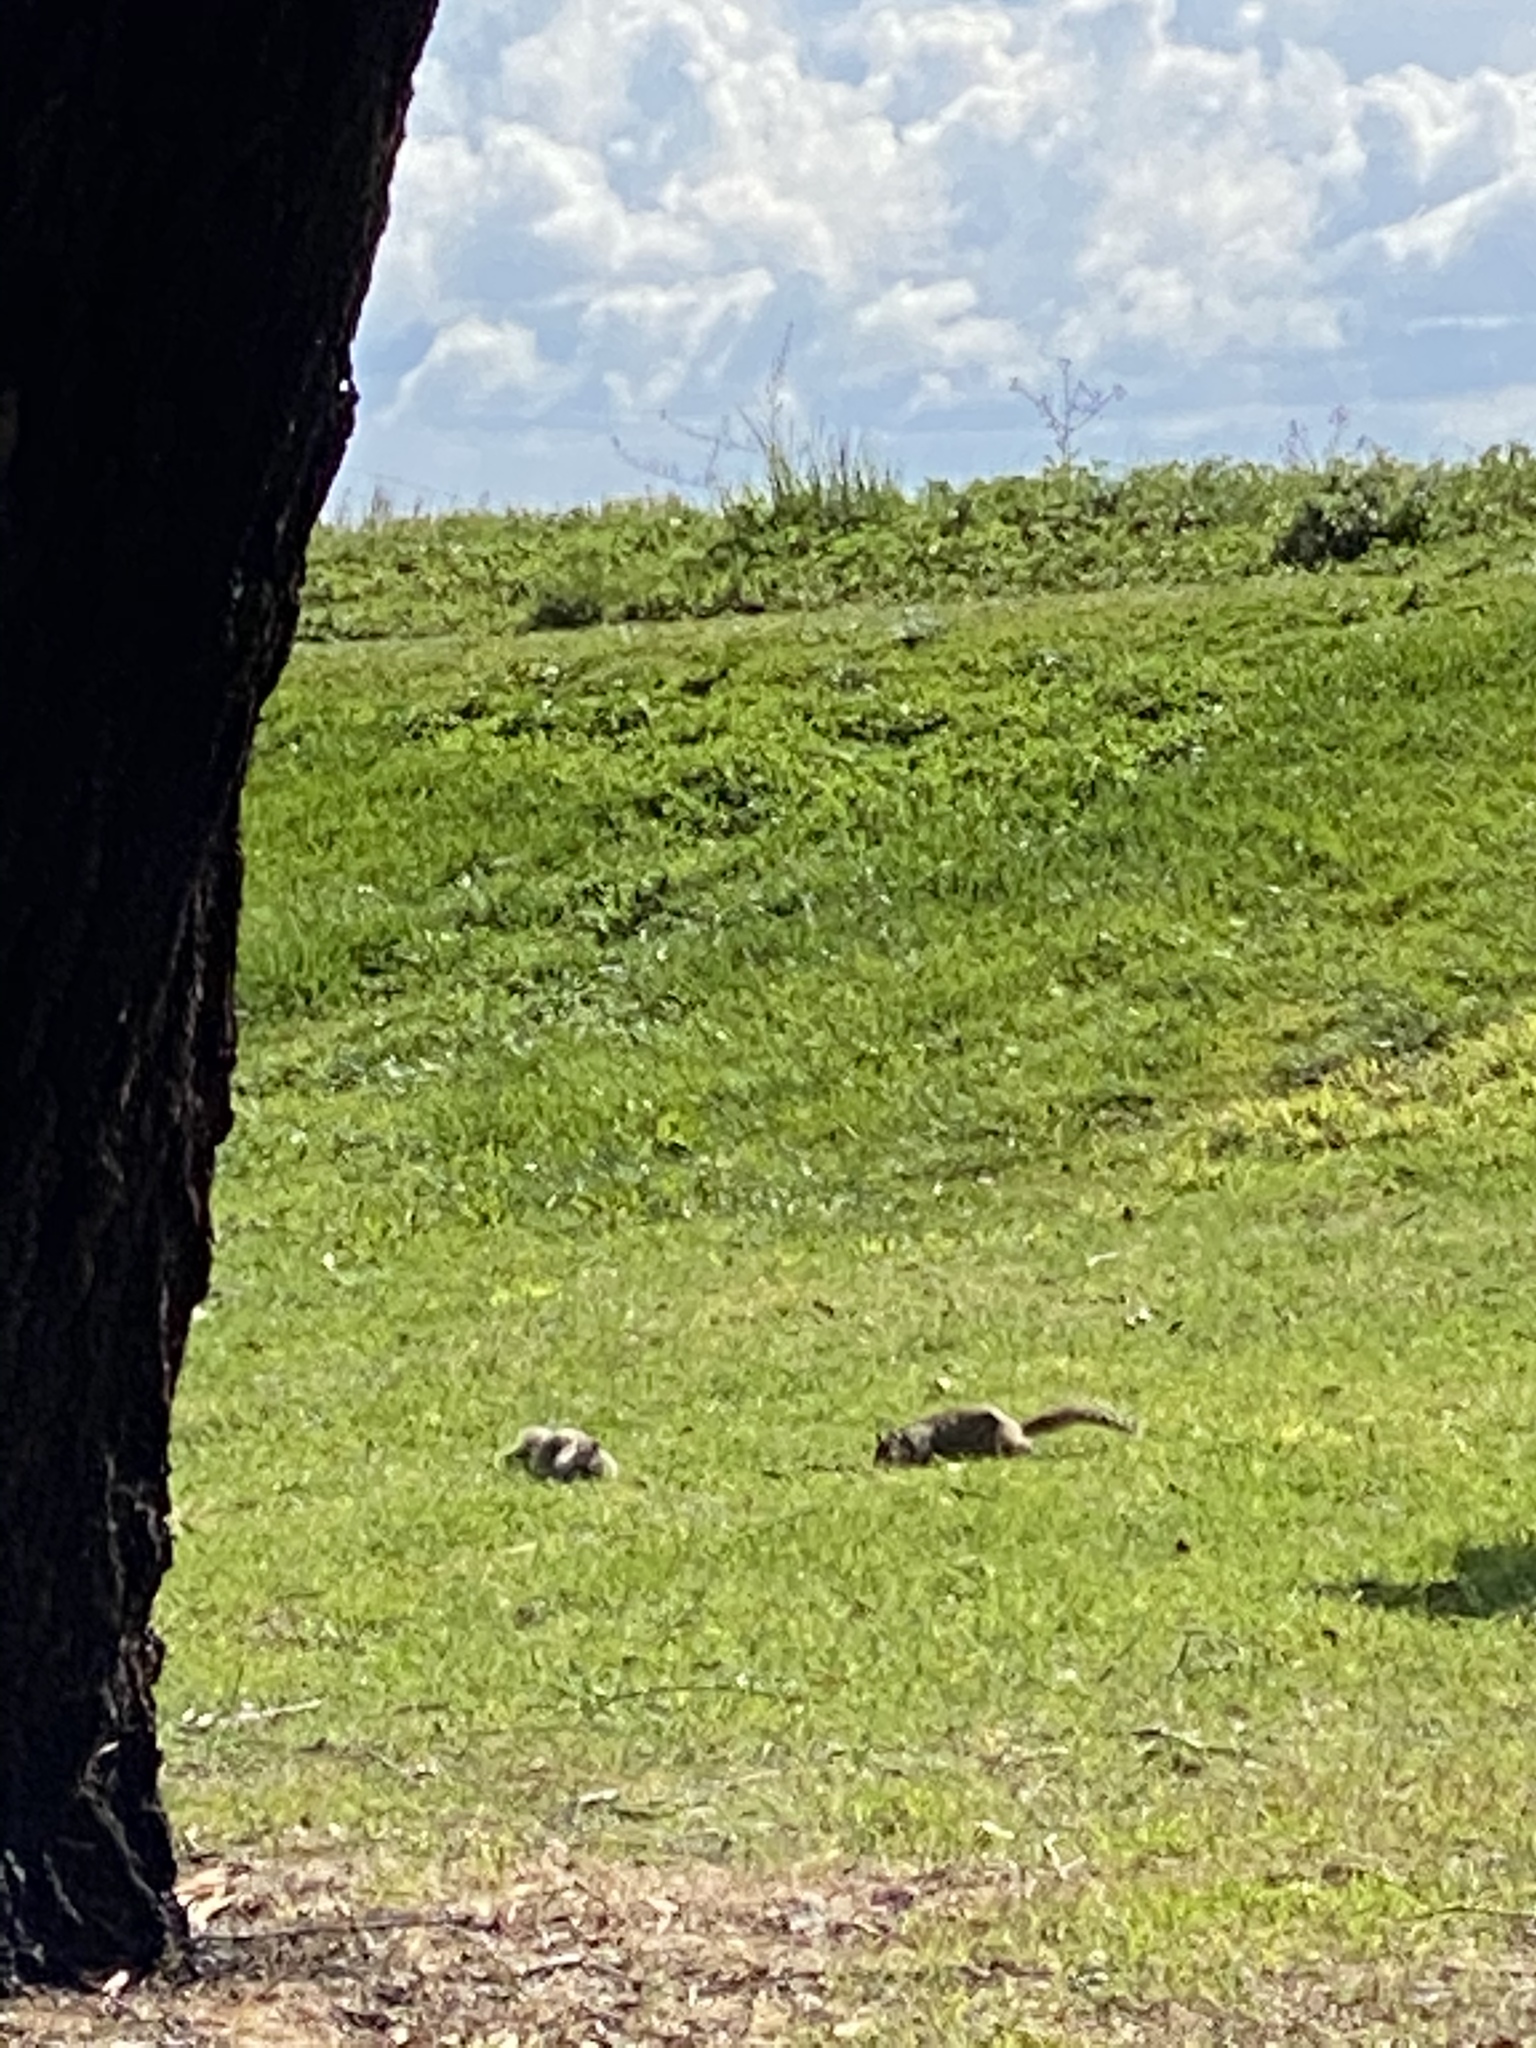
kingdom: Animalia
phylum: Chordata
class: Mammalia
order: Rodentia
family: Sciuridae
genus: Otospermophilus
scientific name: Otospermophilus beecheyi
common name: California ground squirrel
